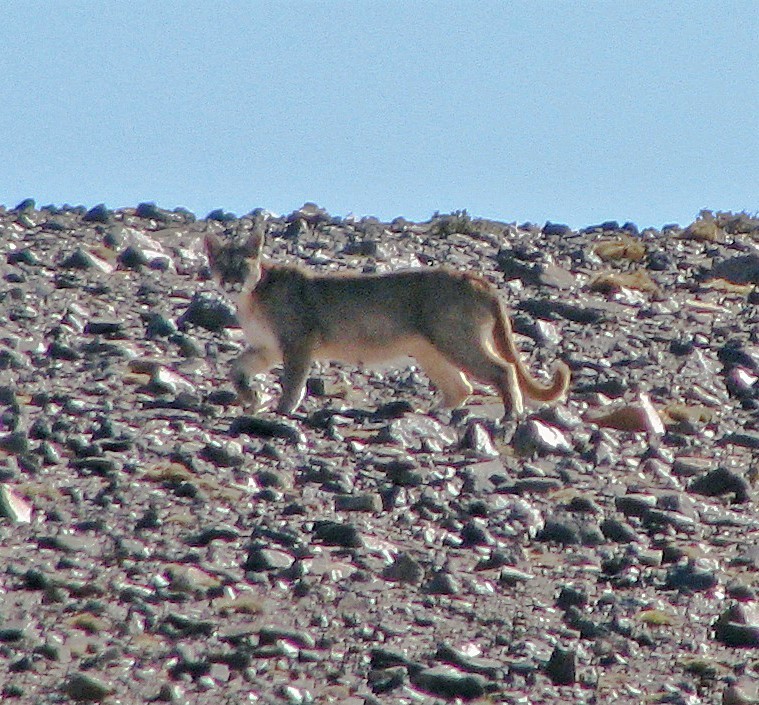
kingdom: Animalia
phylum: Chordata
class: Mammalia
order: Carnivora
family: Felidae
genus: Puma
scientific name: Puma concolor
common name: Puma
